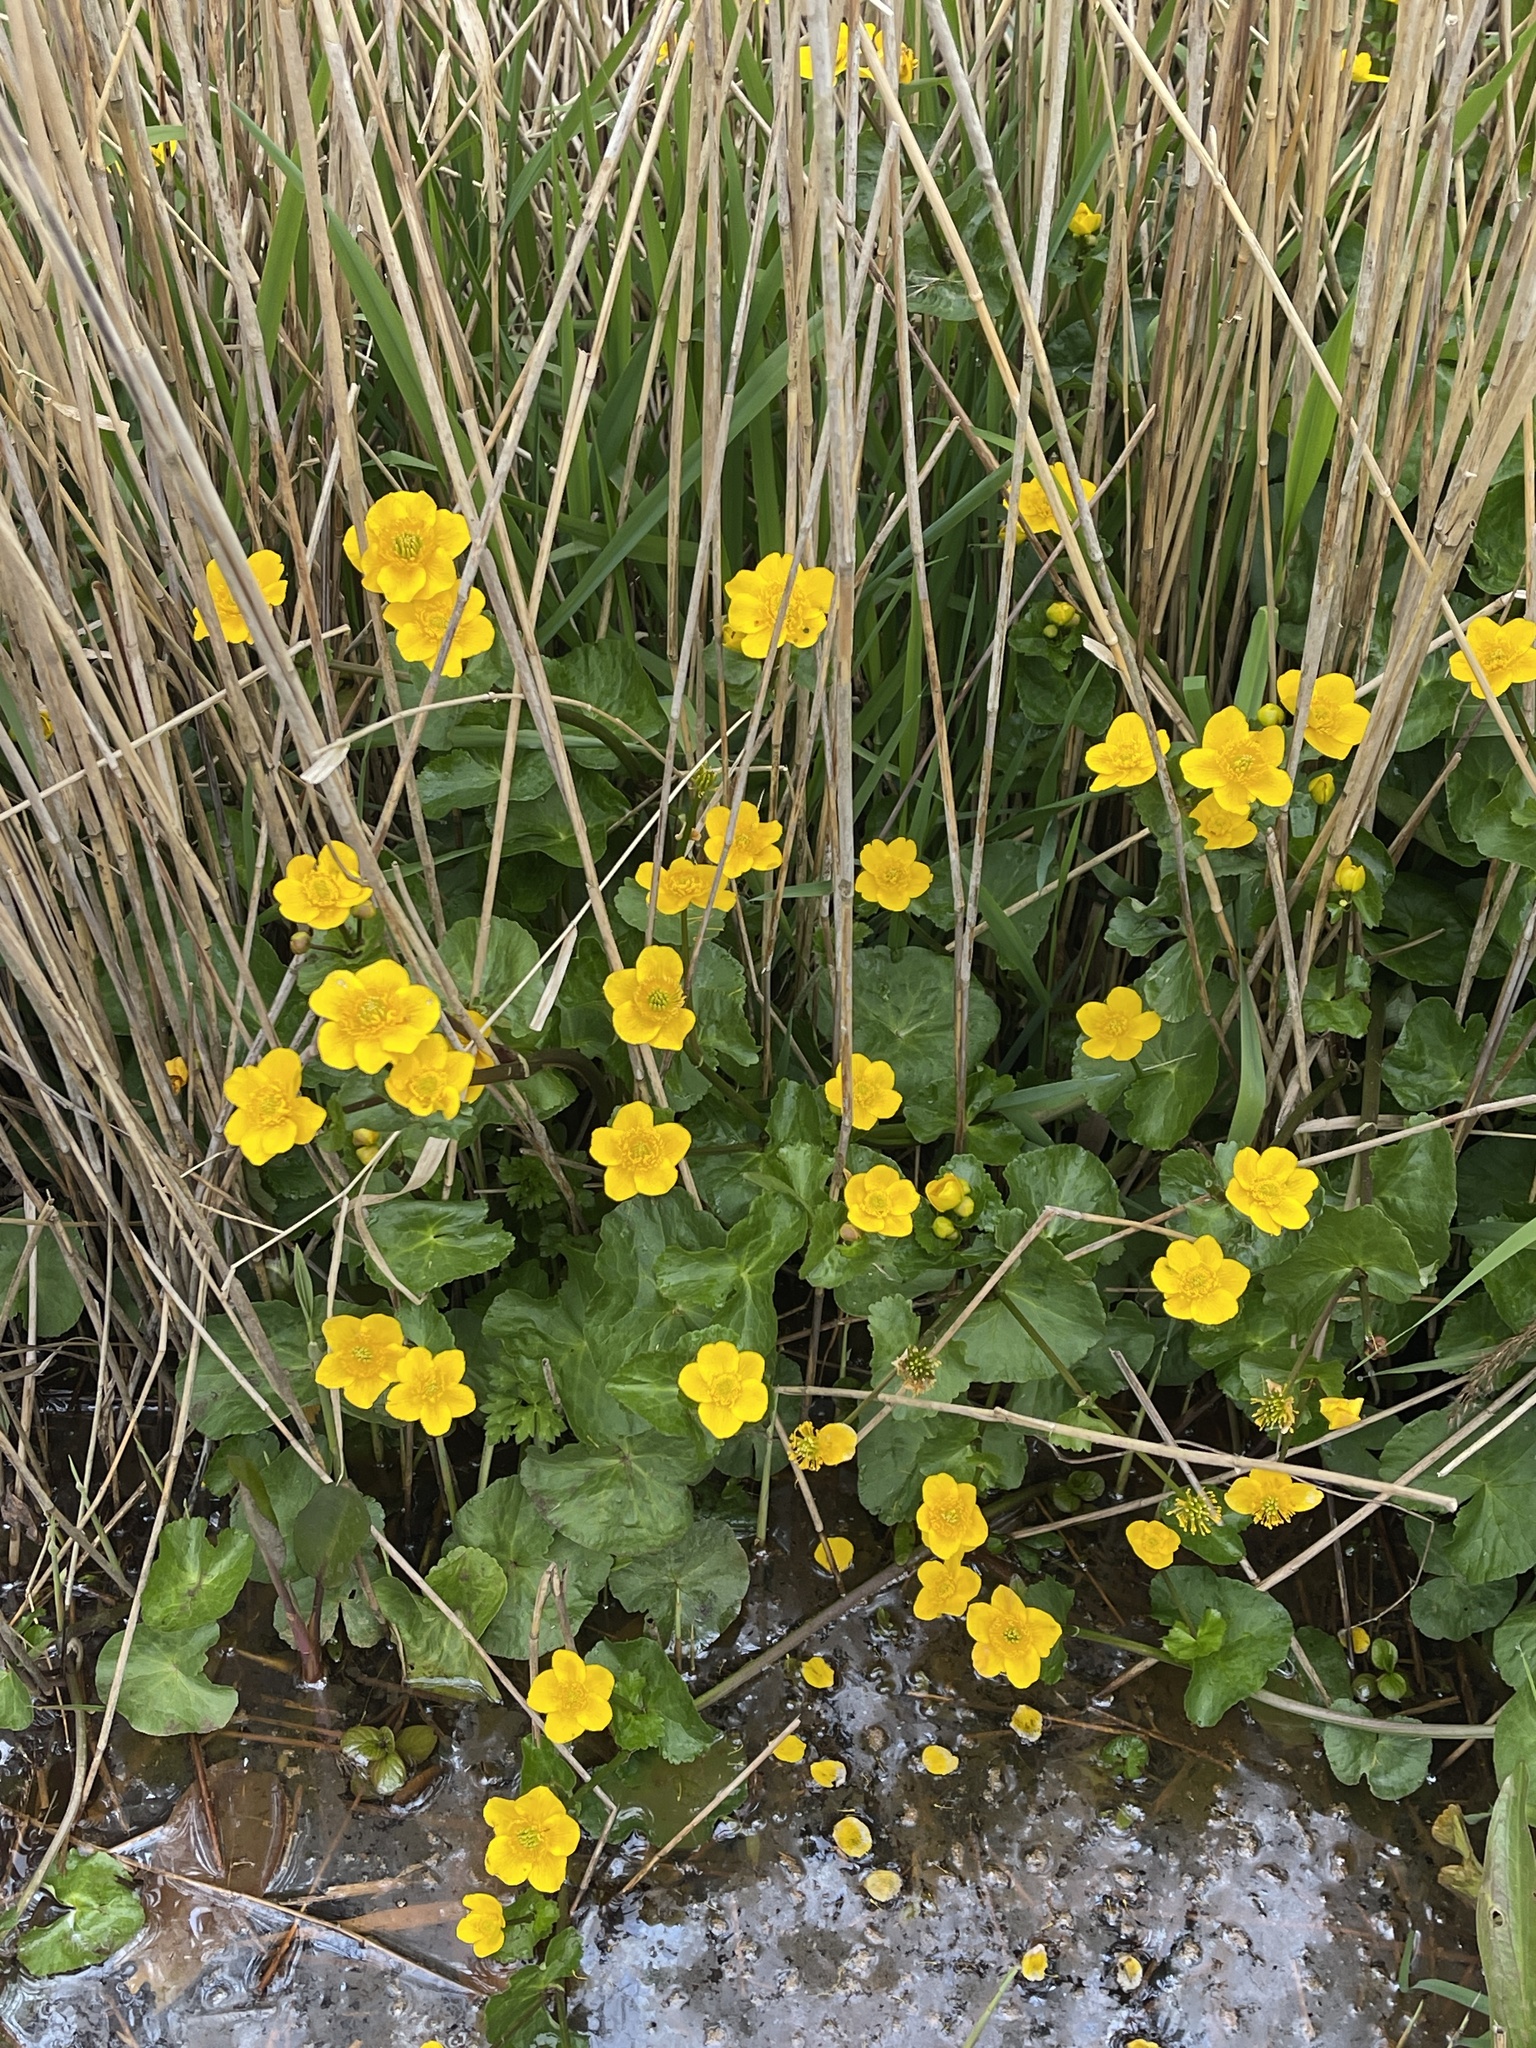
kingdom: Plantae
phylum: Tracheophyta
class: Magnoliopsida
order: Ranunculales
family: Ranunculaceae
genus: Caltha
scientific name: Caltha palustris
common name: Marsh marigold
